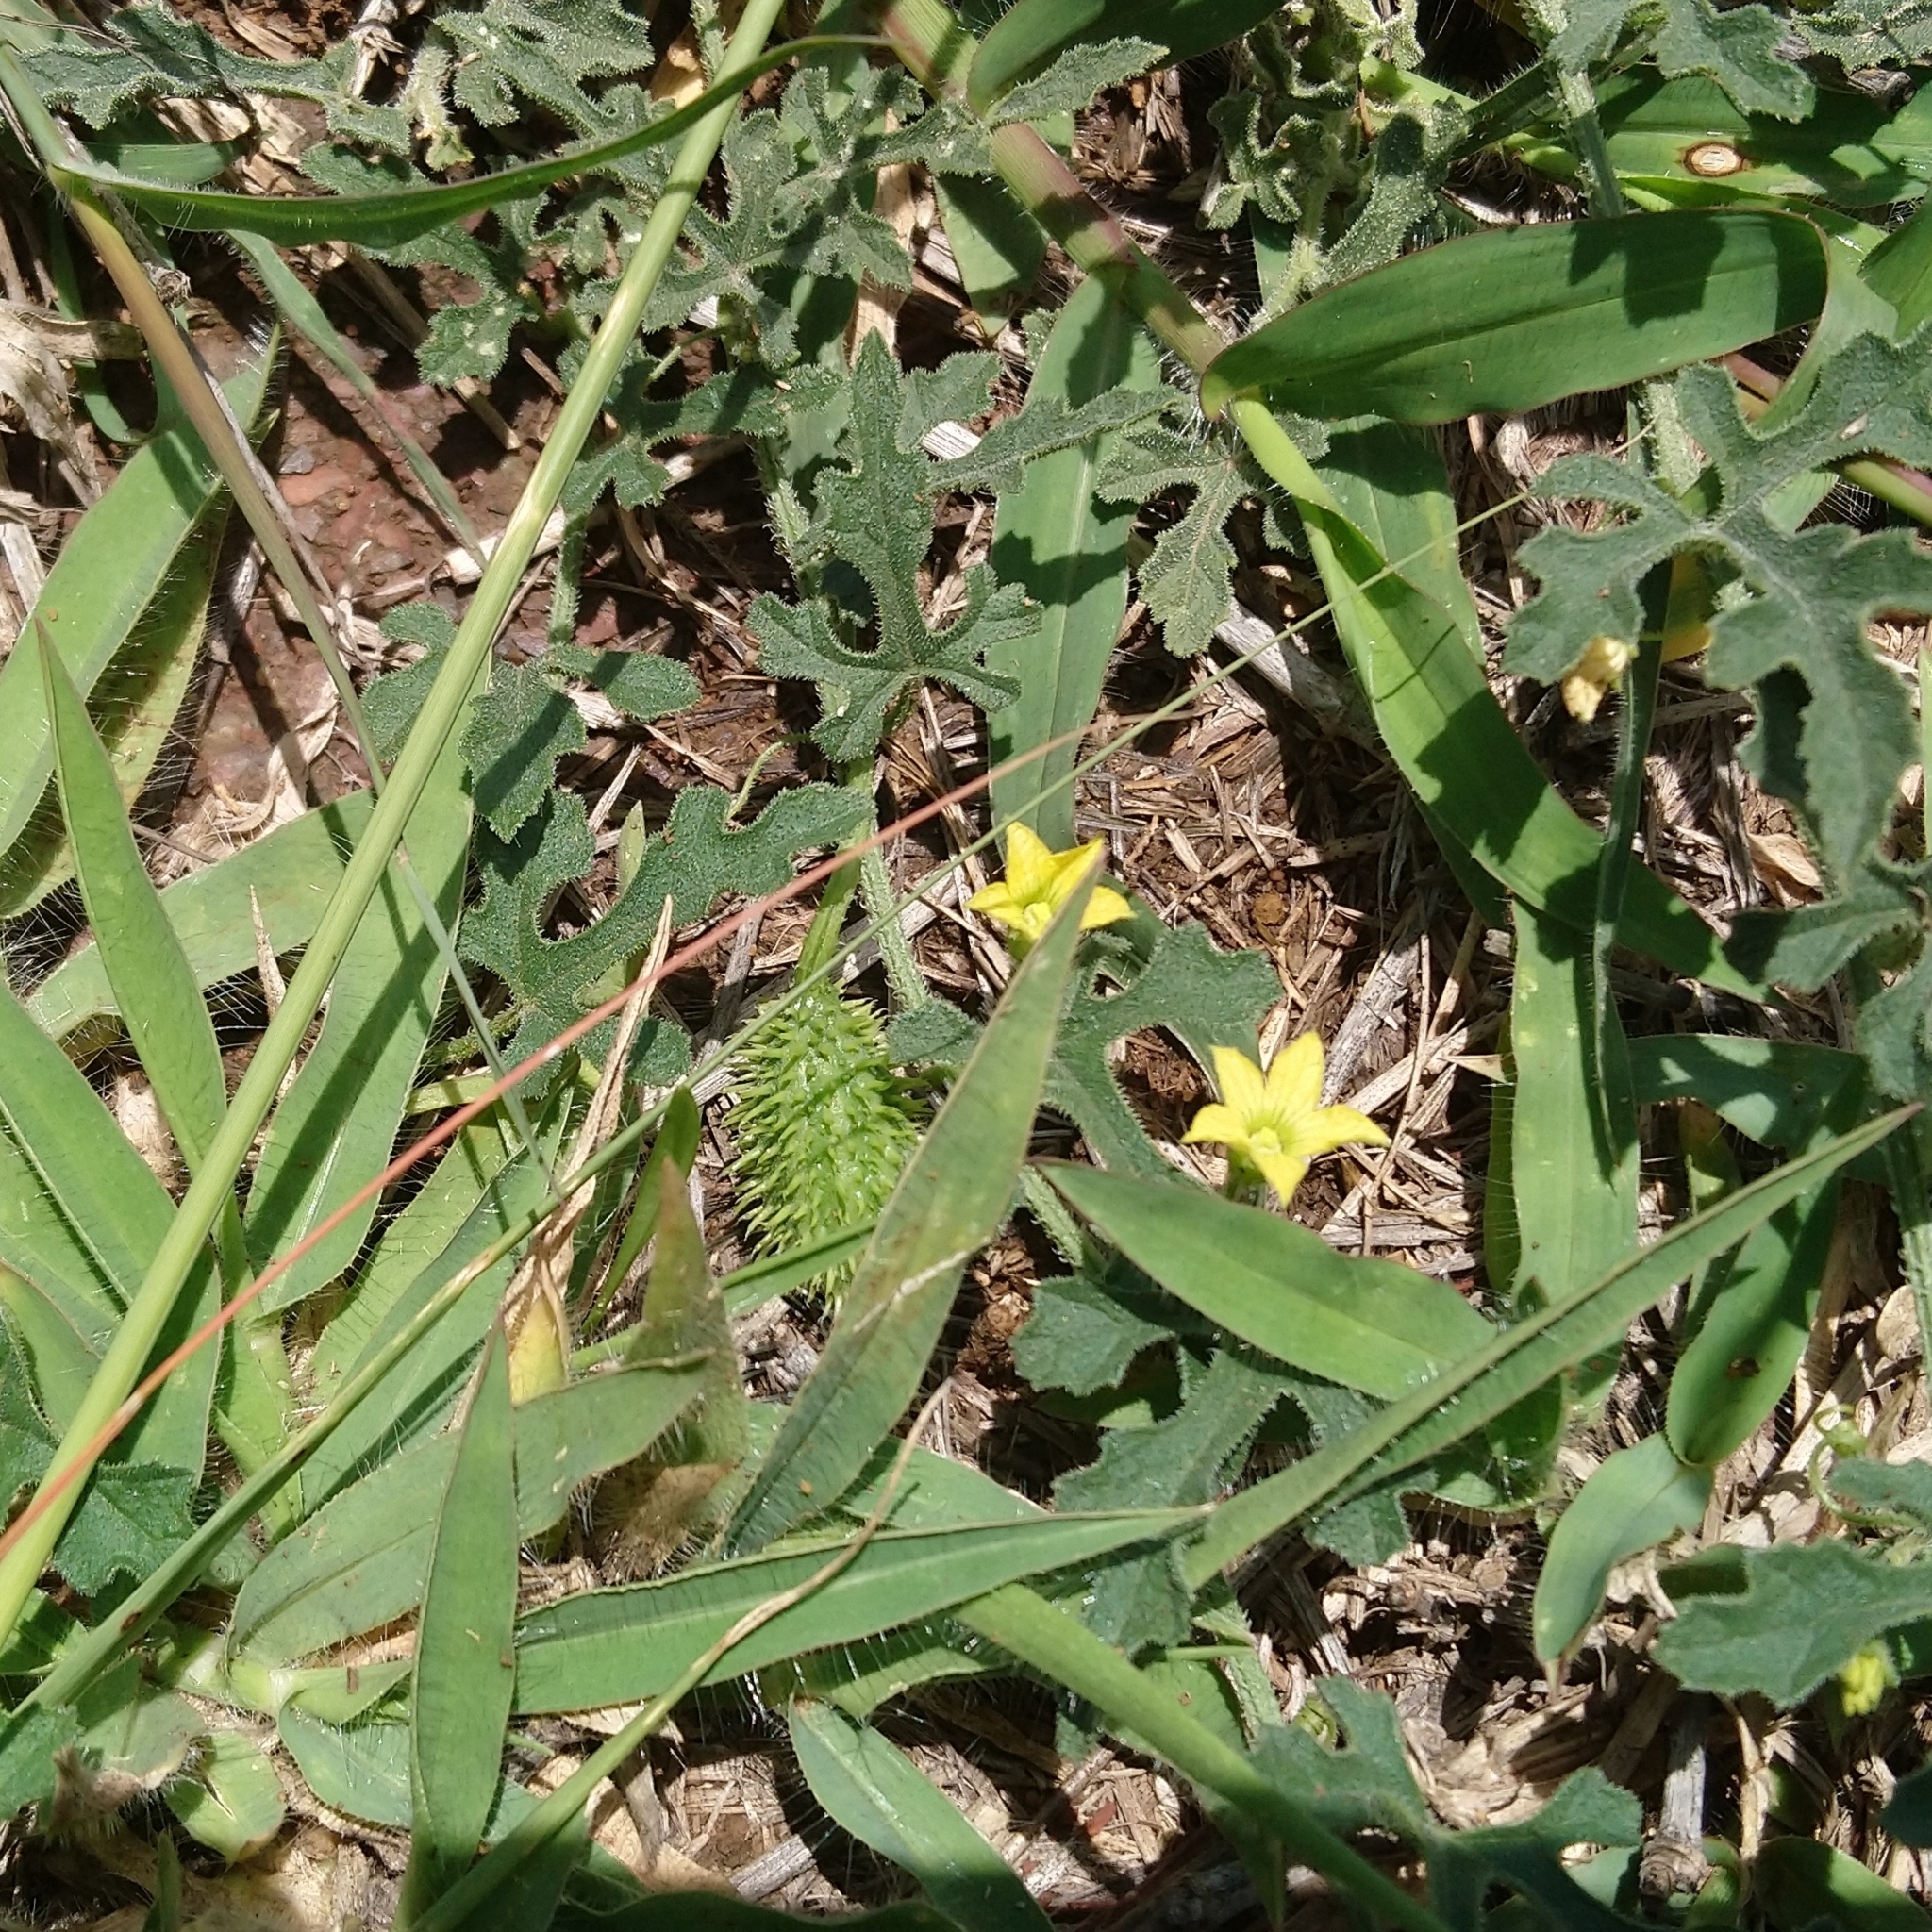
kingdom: Plantae
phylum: Tracheophyta
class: Magnoliopsida
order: Cucurbitales
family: Cucurbitaceae
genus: Cucumis
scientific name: Cucumis zeyheri
